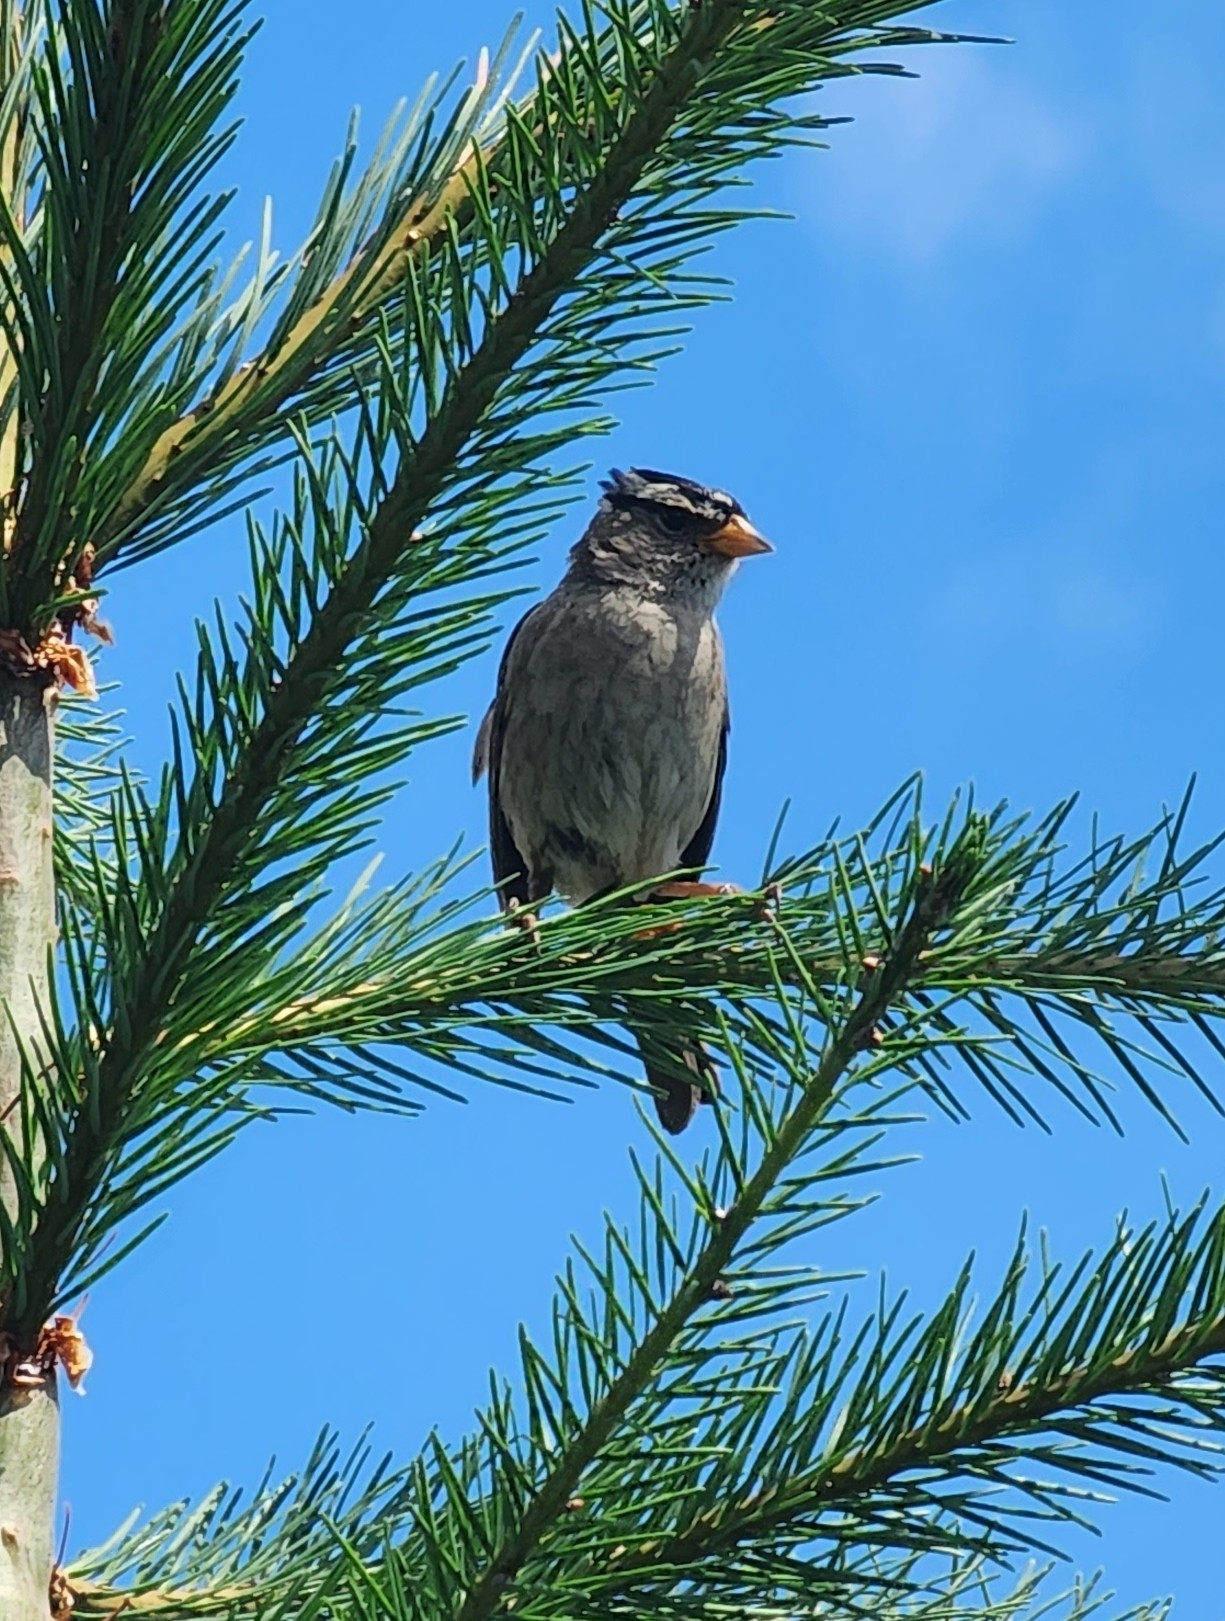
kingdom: Animalia
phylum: Chordata
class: Aves
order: Passeriformes
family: Passerellidae
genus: Zonotrichia
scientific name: Zonotrichia leucophrys
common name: White-crowned sparrow
